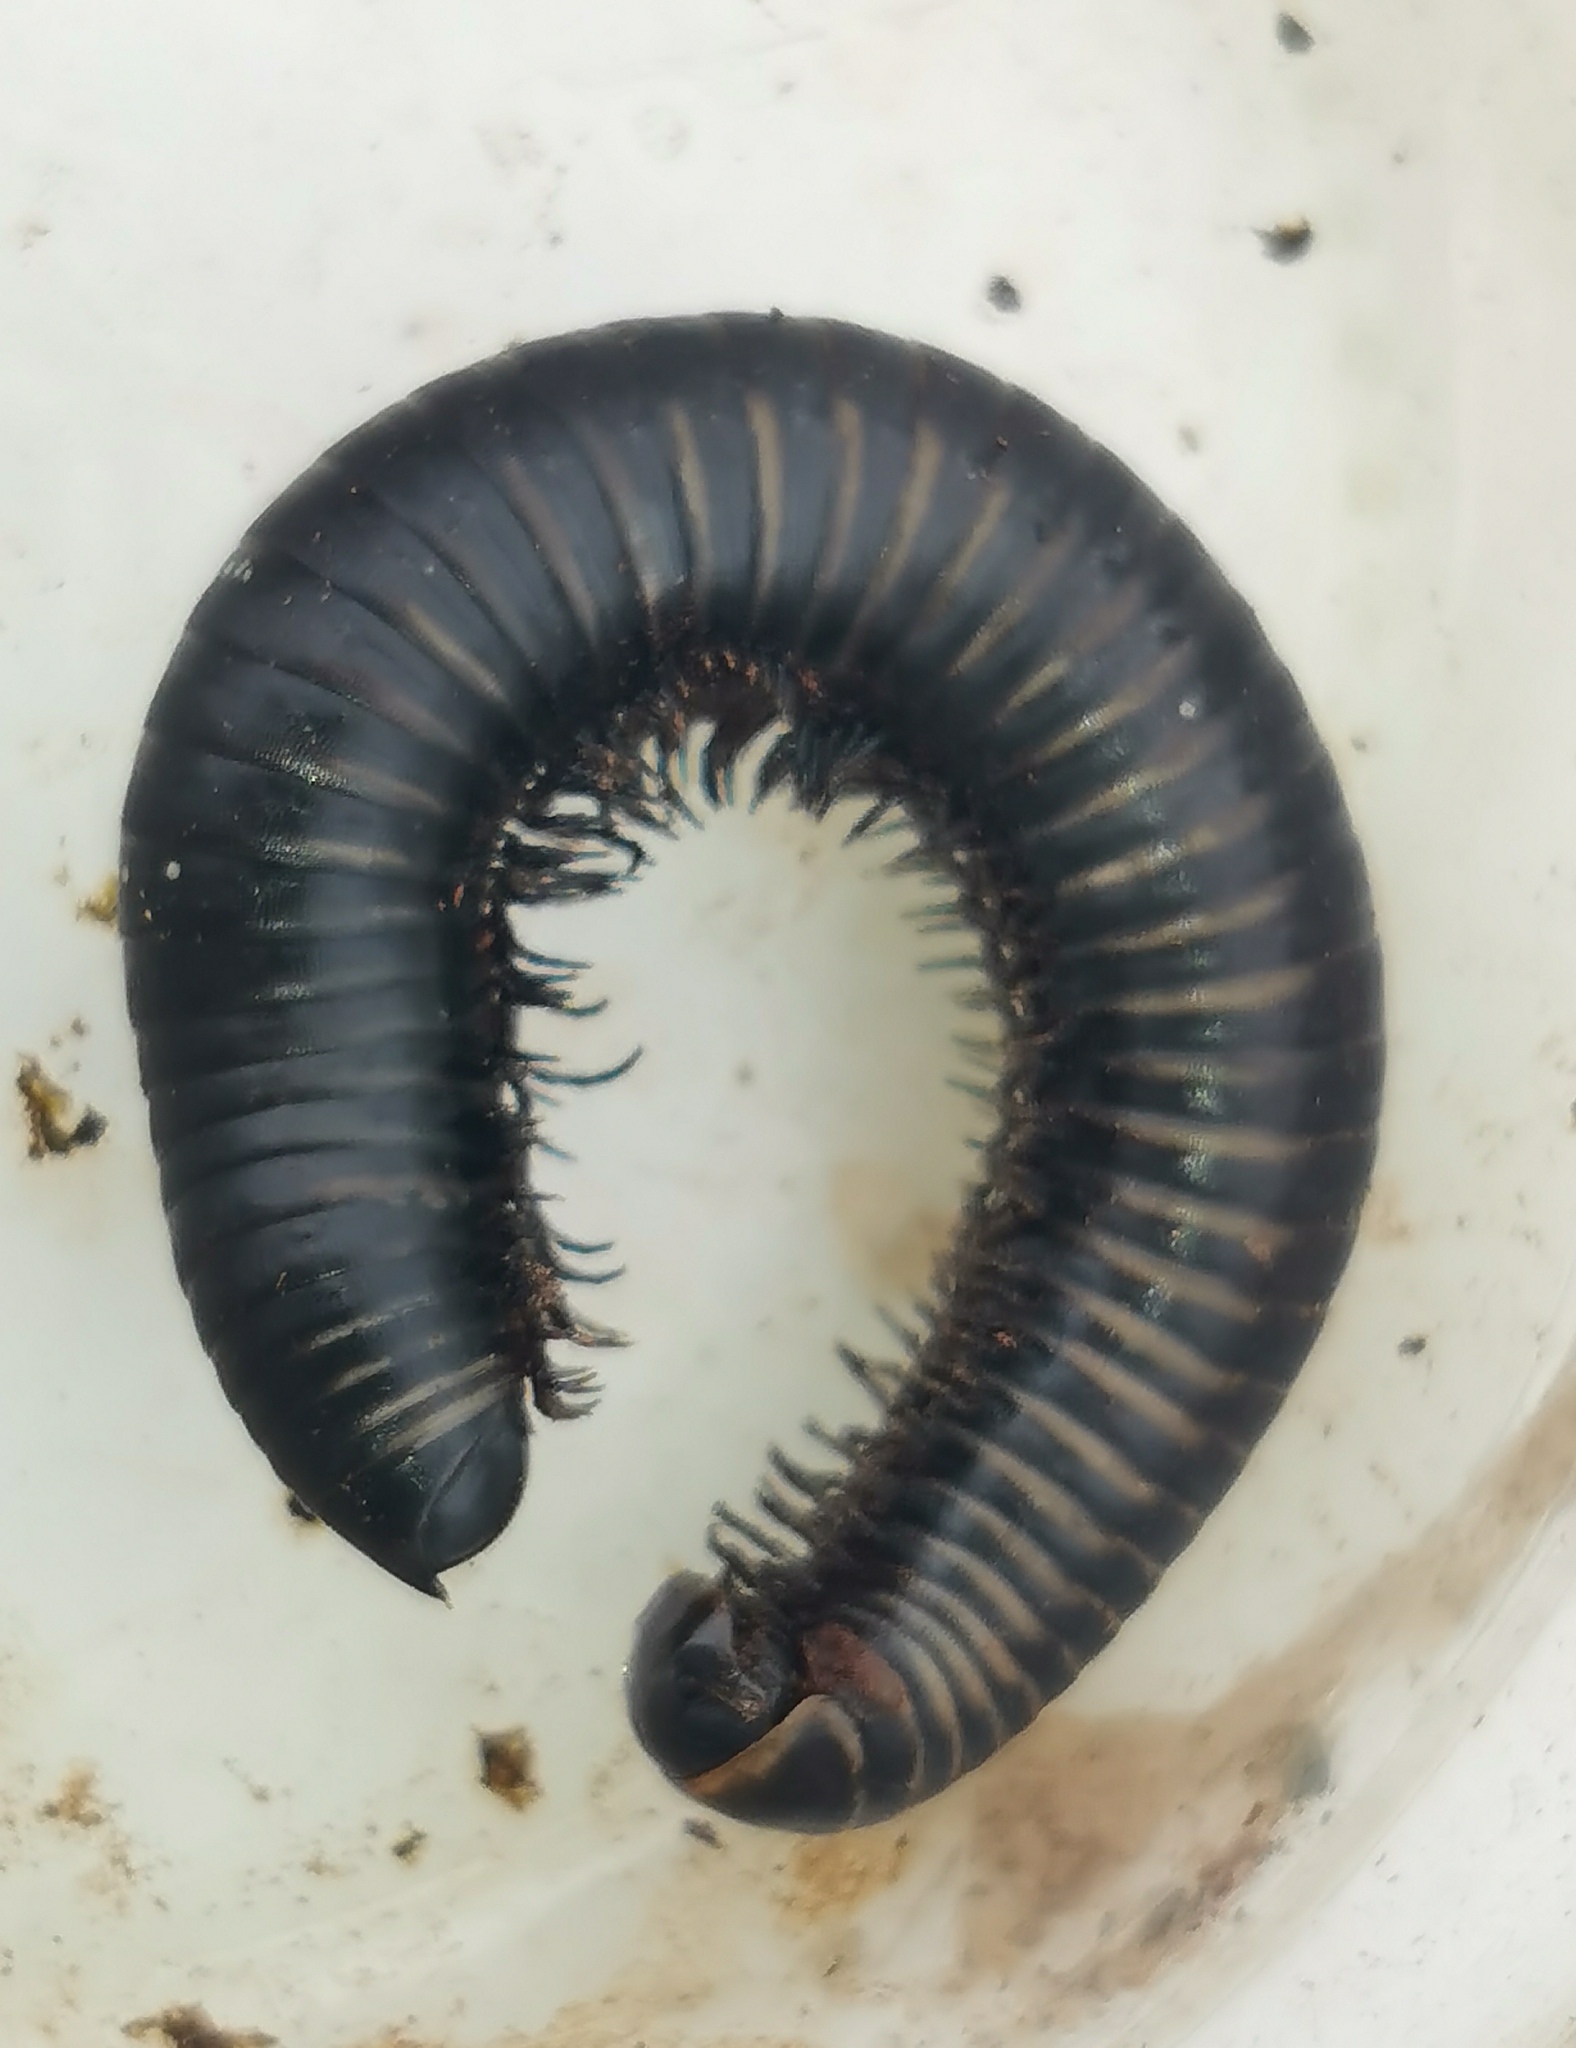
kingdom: Animalia
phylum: Arthropoda
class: Diplopoda
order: Julida
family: Julidae
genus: Ommatoiulus
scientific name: Ommatoiulus rutilans
